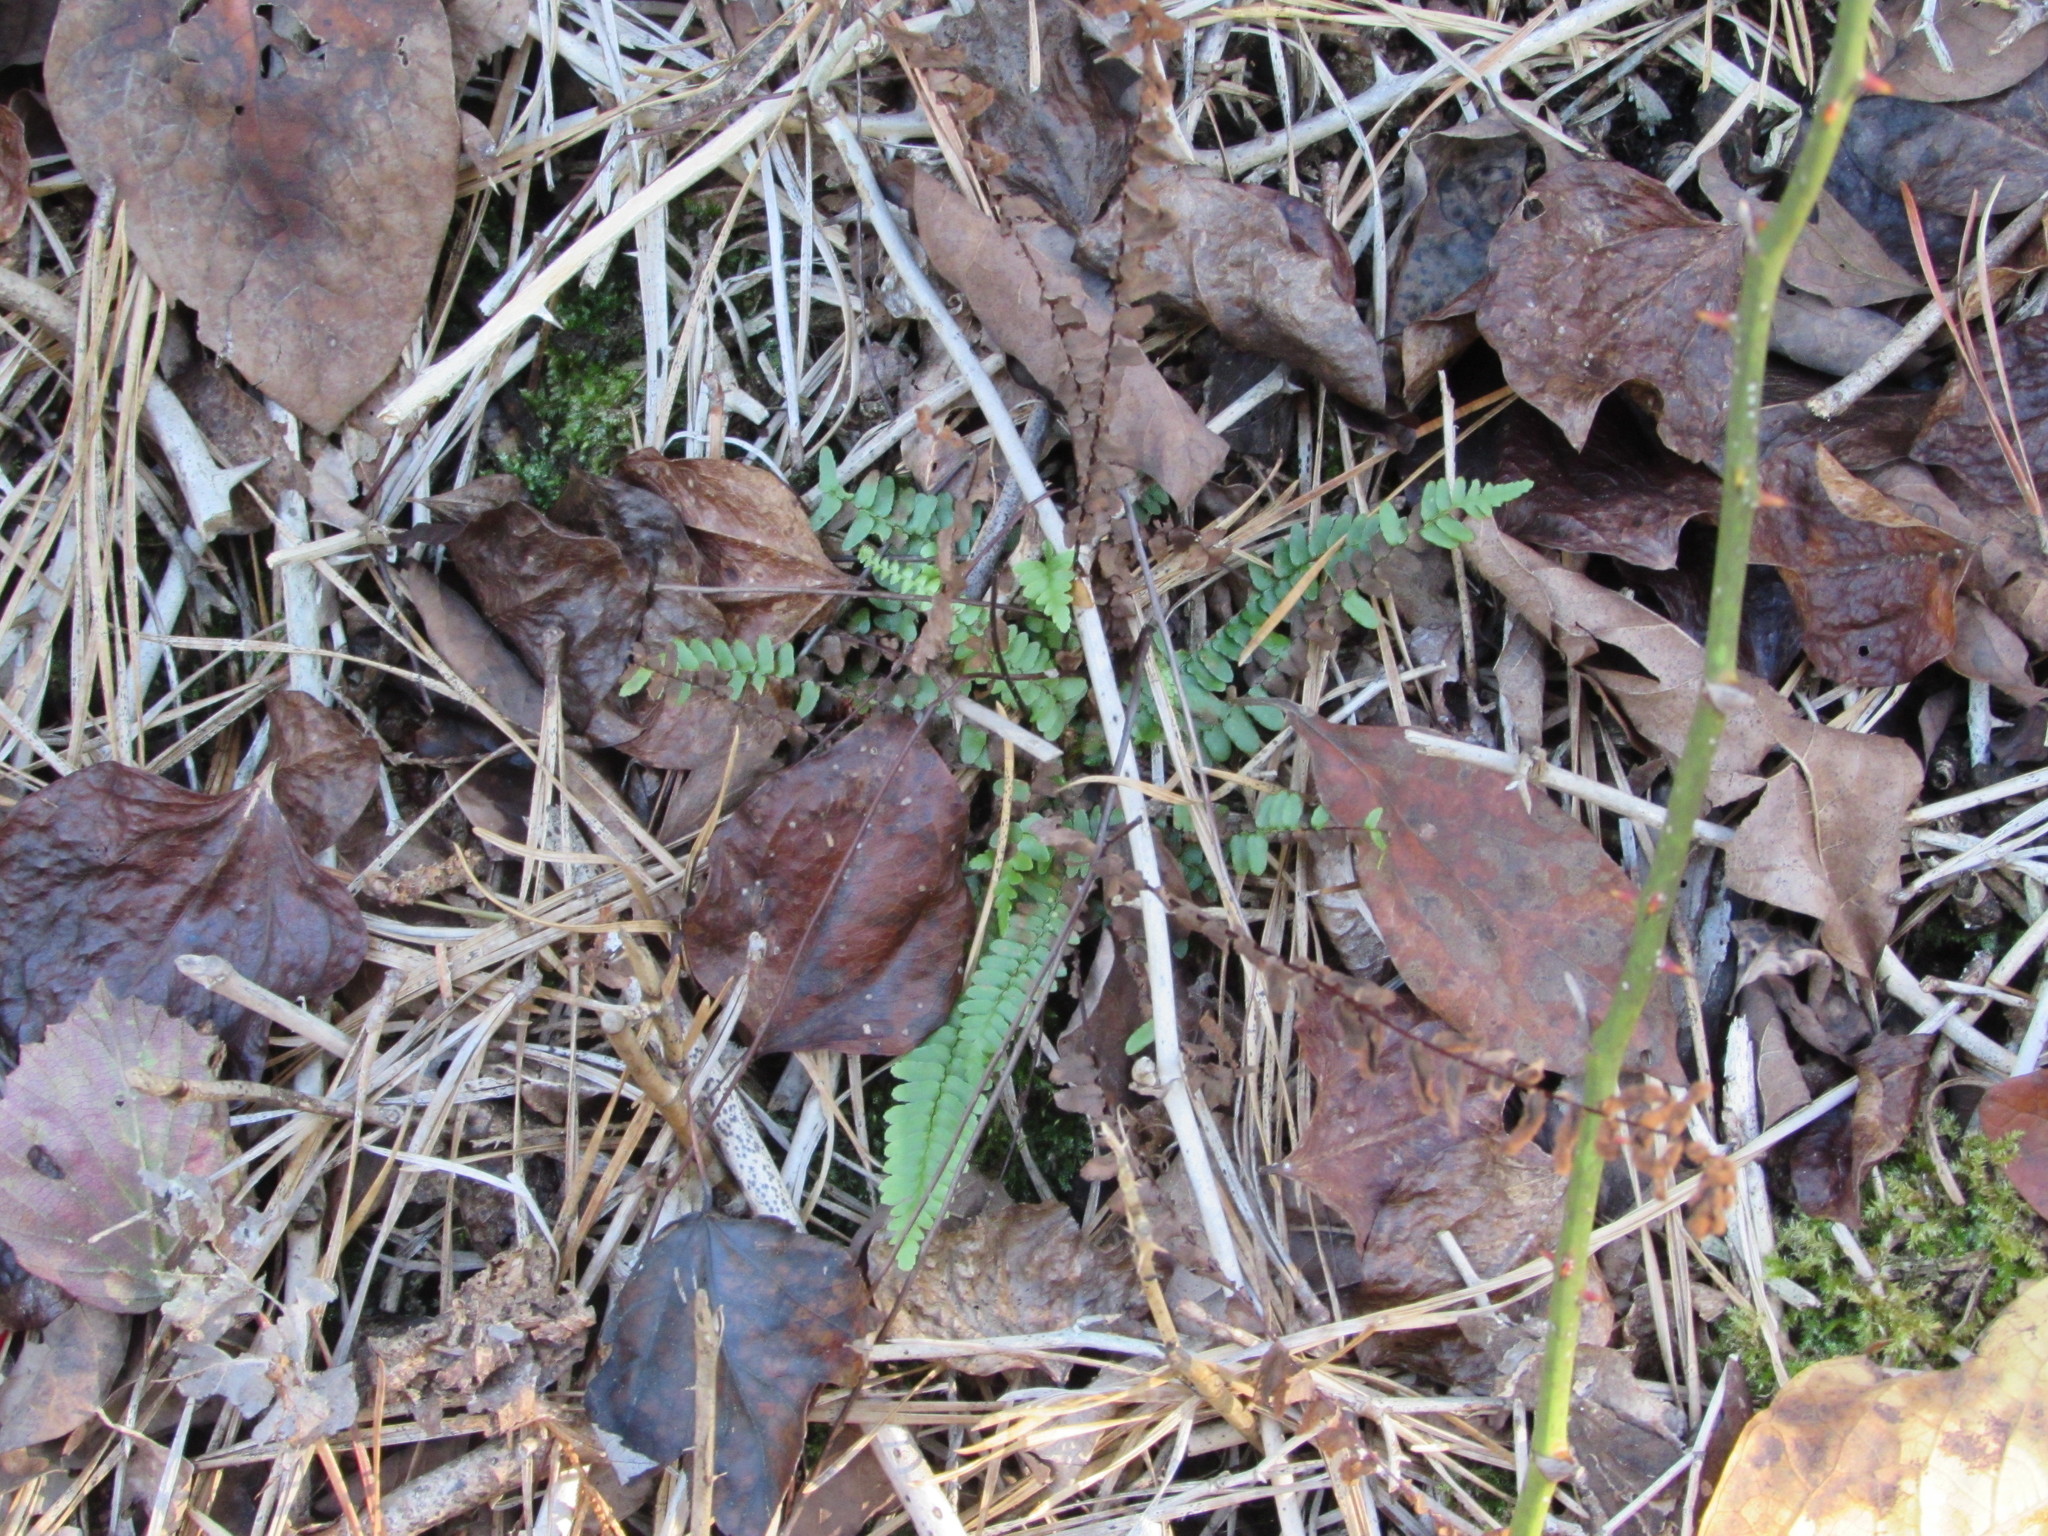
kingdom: Plantae
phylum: Tracheophyta
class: Polypodiopsida
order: Polypodiales
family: Aspleniaceae
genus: Asplenium
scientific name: Asplenium platyneuron
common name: Ebony spleenwort
